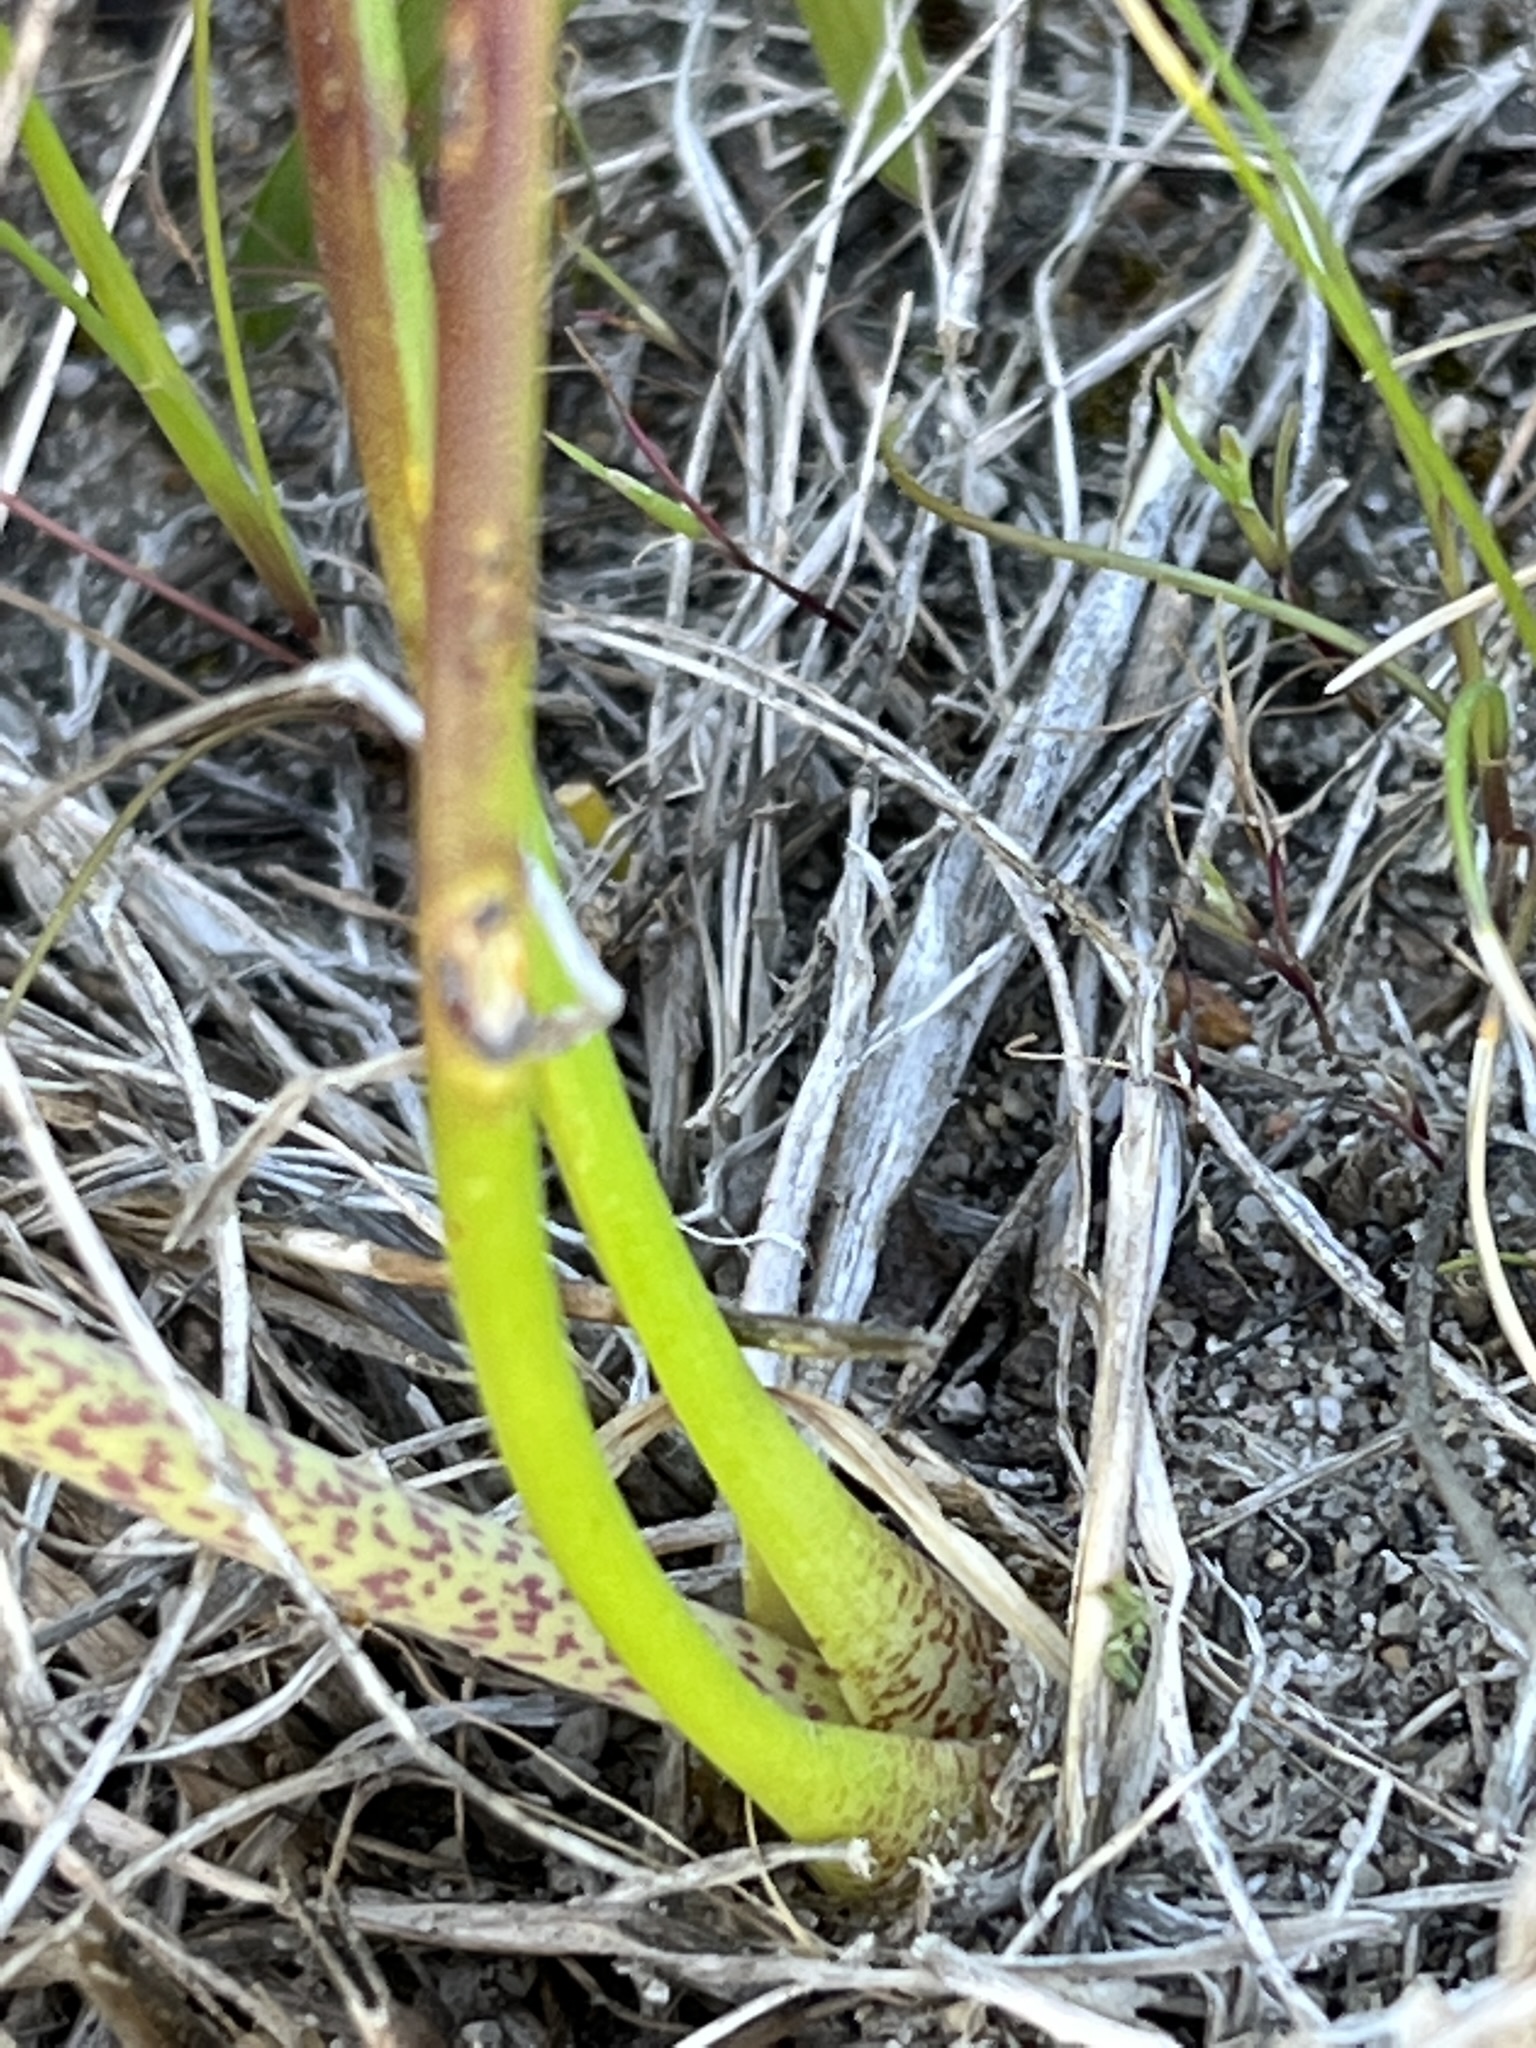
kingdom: Plantae
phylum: Tracheophyta
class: Liliopsida
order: Asparagales
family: Asparagaceae
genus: Lachenalia
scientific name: Lachenalia magentea
